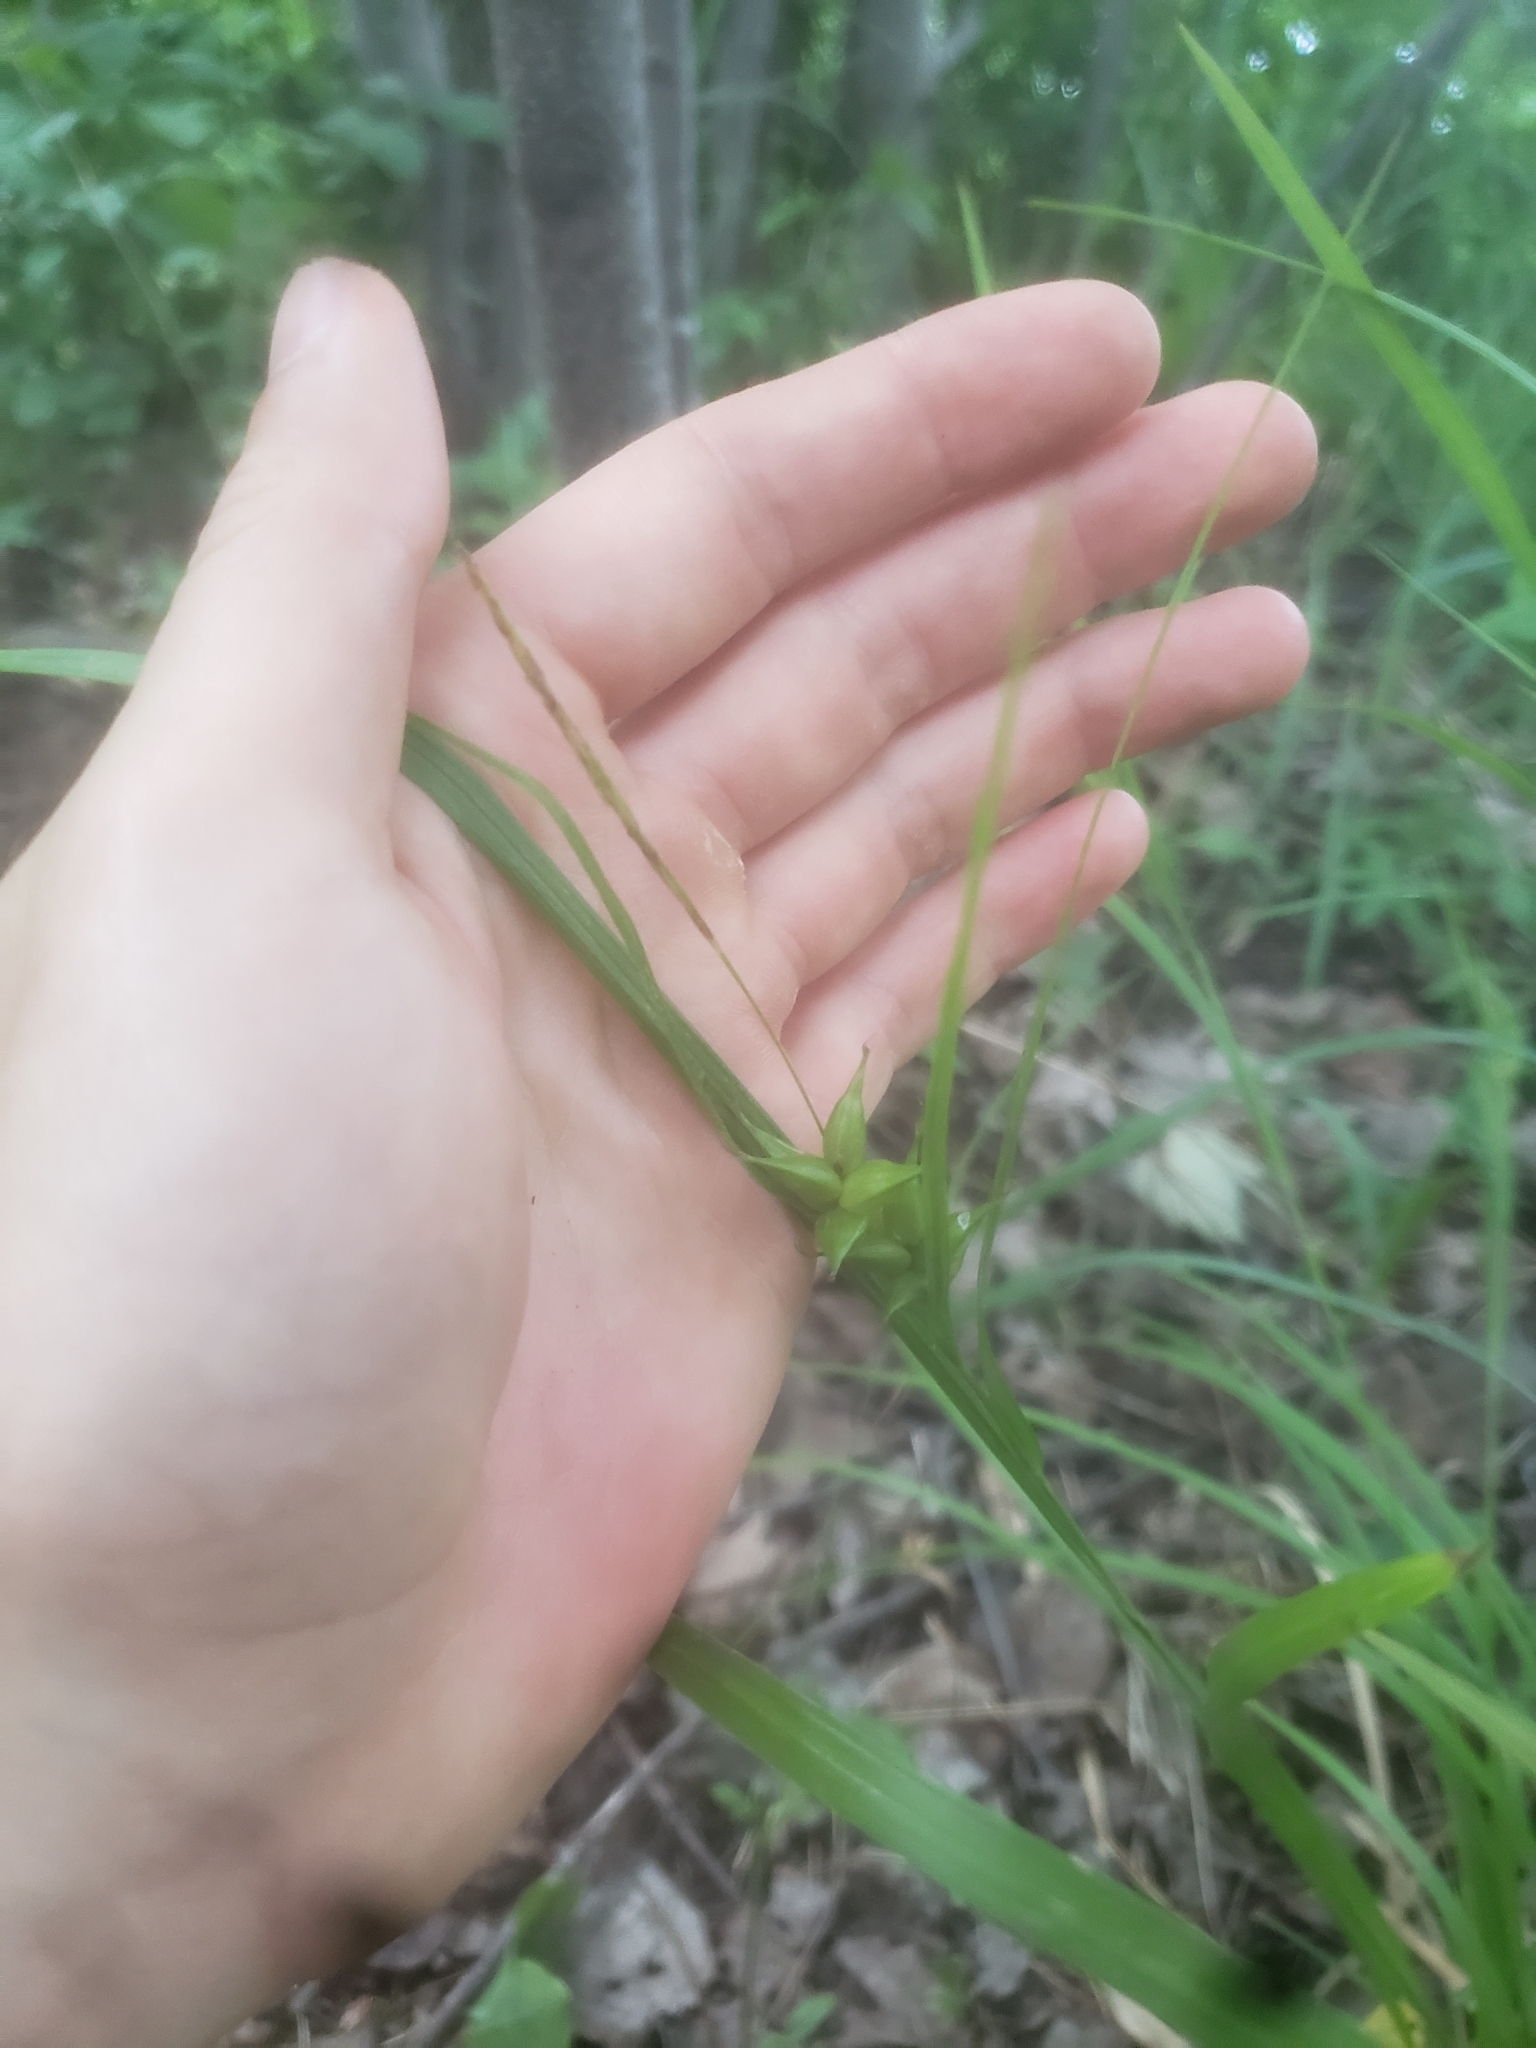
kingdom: Plantae
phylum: Tracheophyta
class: Liliopsida
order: Poales
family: Cyperaceae
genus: Carex
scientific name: Carex intumescens
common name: Greater bladder sedge
